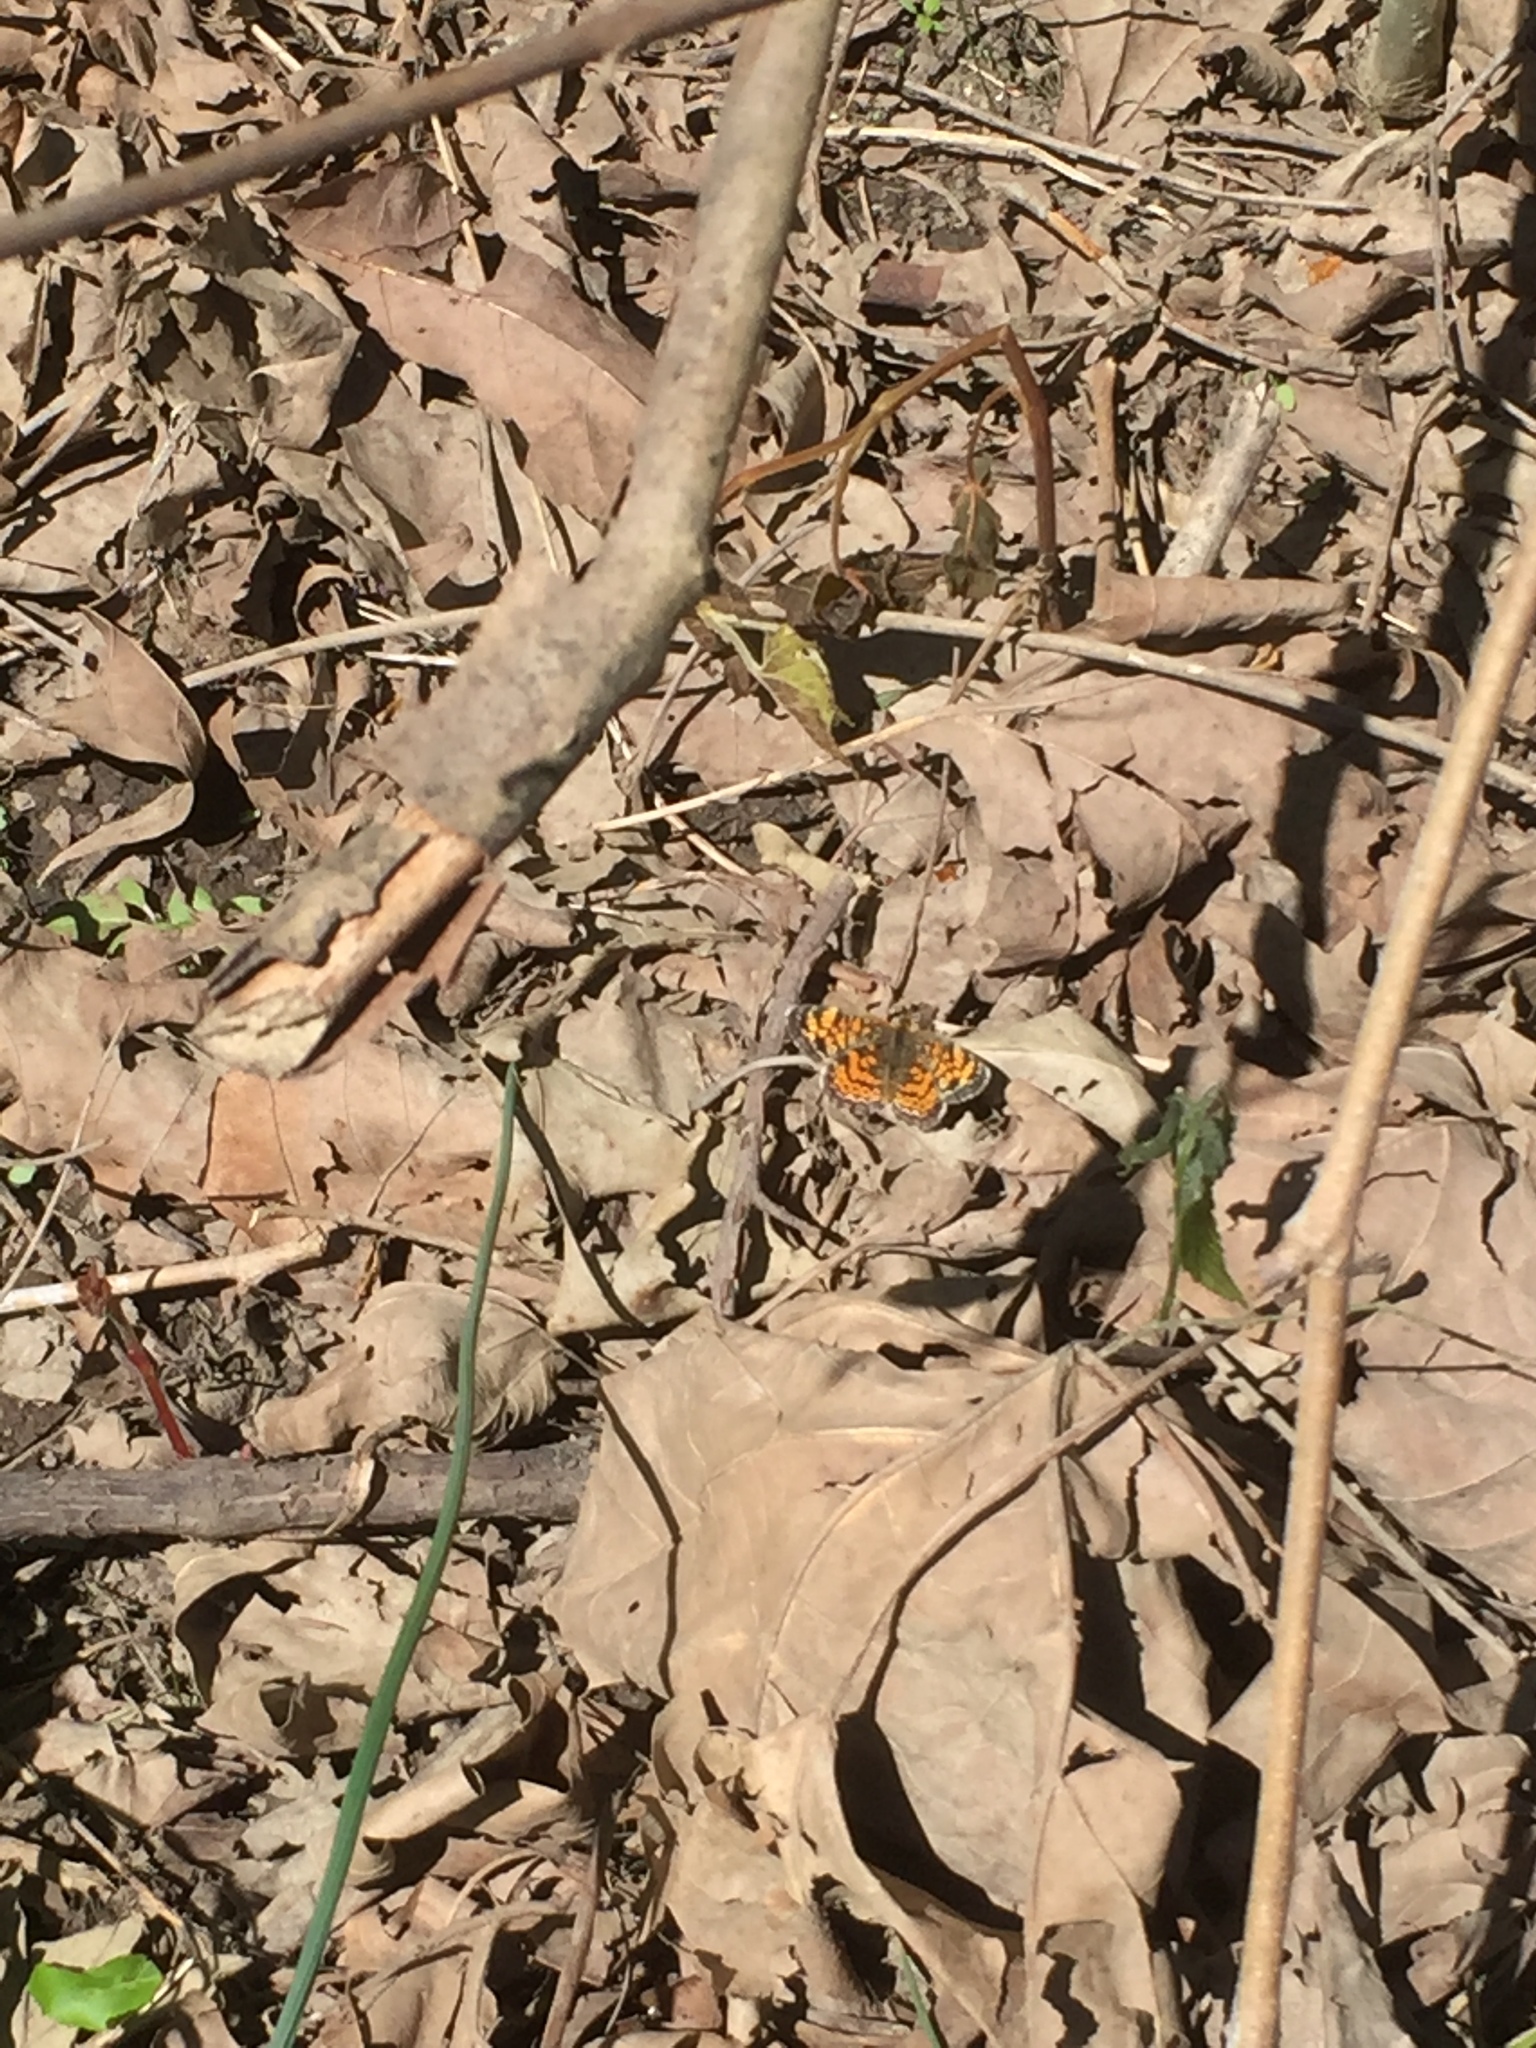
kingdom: Animalia
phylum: Arthropoda
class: Insecta
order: Lepidoptera
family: Nymphalidae
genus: Phyciodes
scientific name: Phyciodes tharos
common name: Pearl crescent
